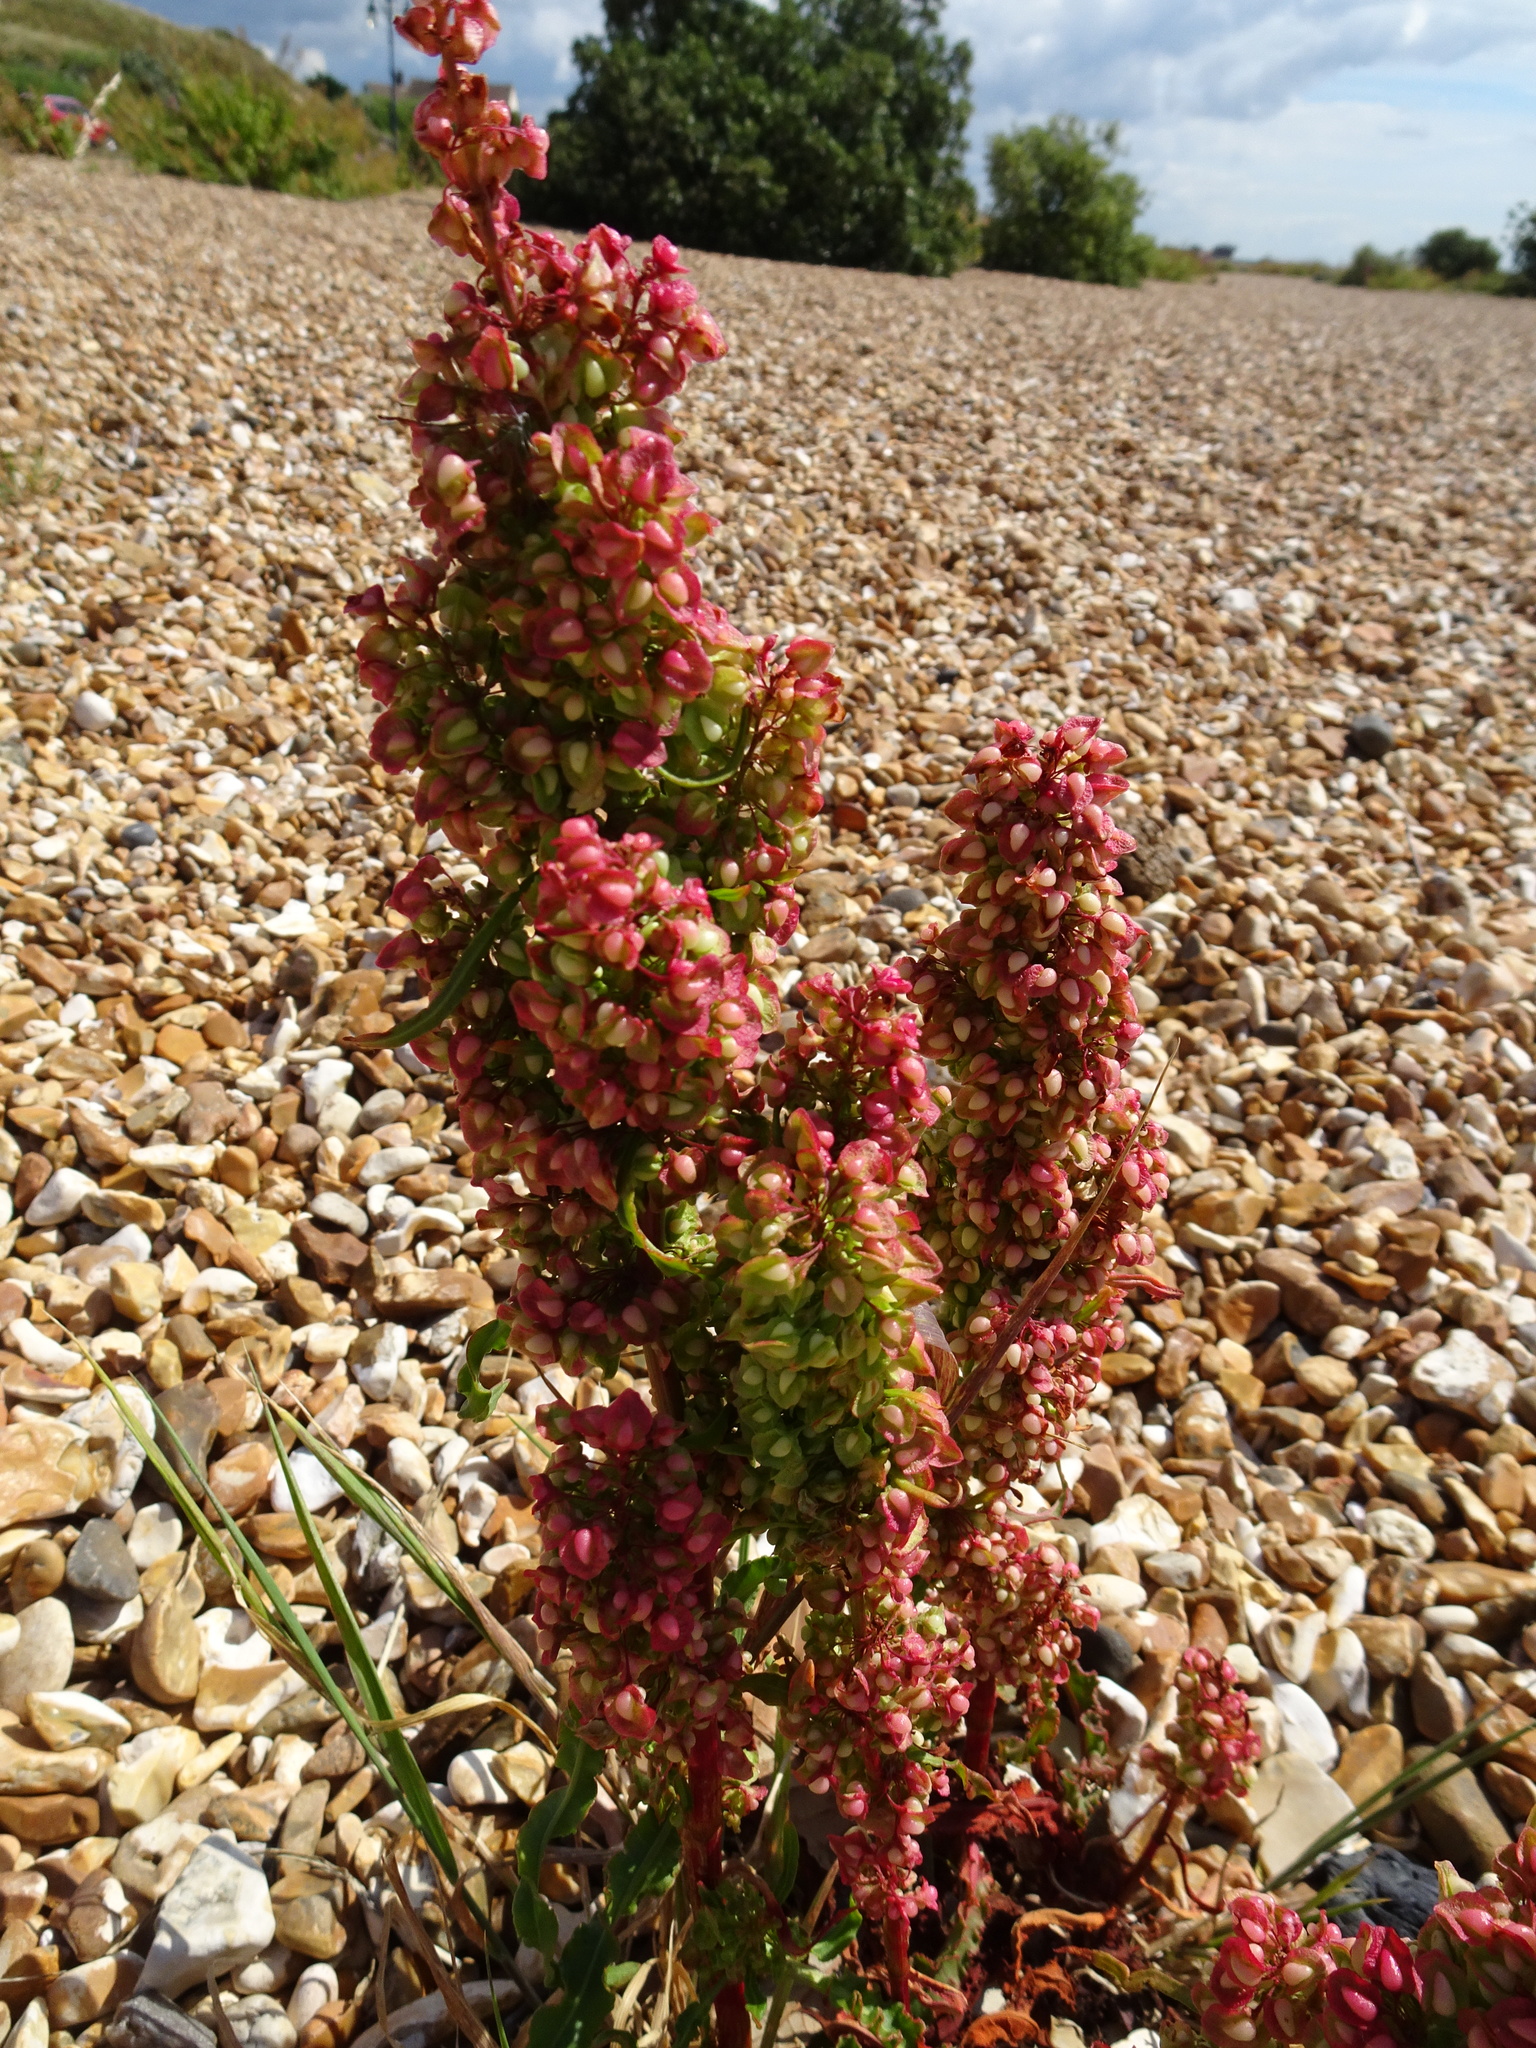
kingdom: Plantae
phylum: Tracheophyta
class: Magnoliopsida
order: Caryophyllales
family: Polygonaceae
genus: Rumex
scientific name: Rumex crispus
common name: Curled dock
